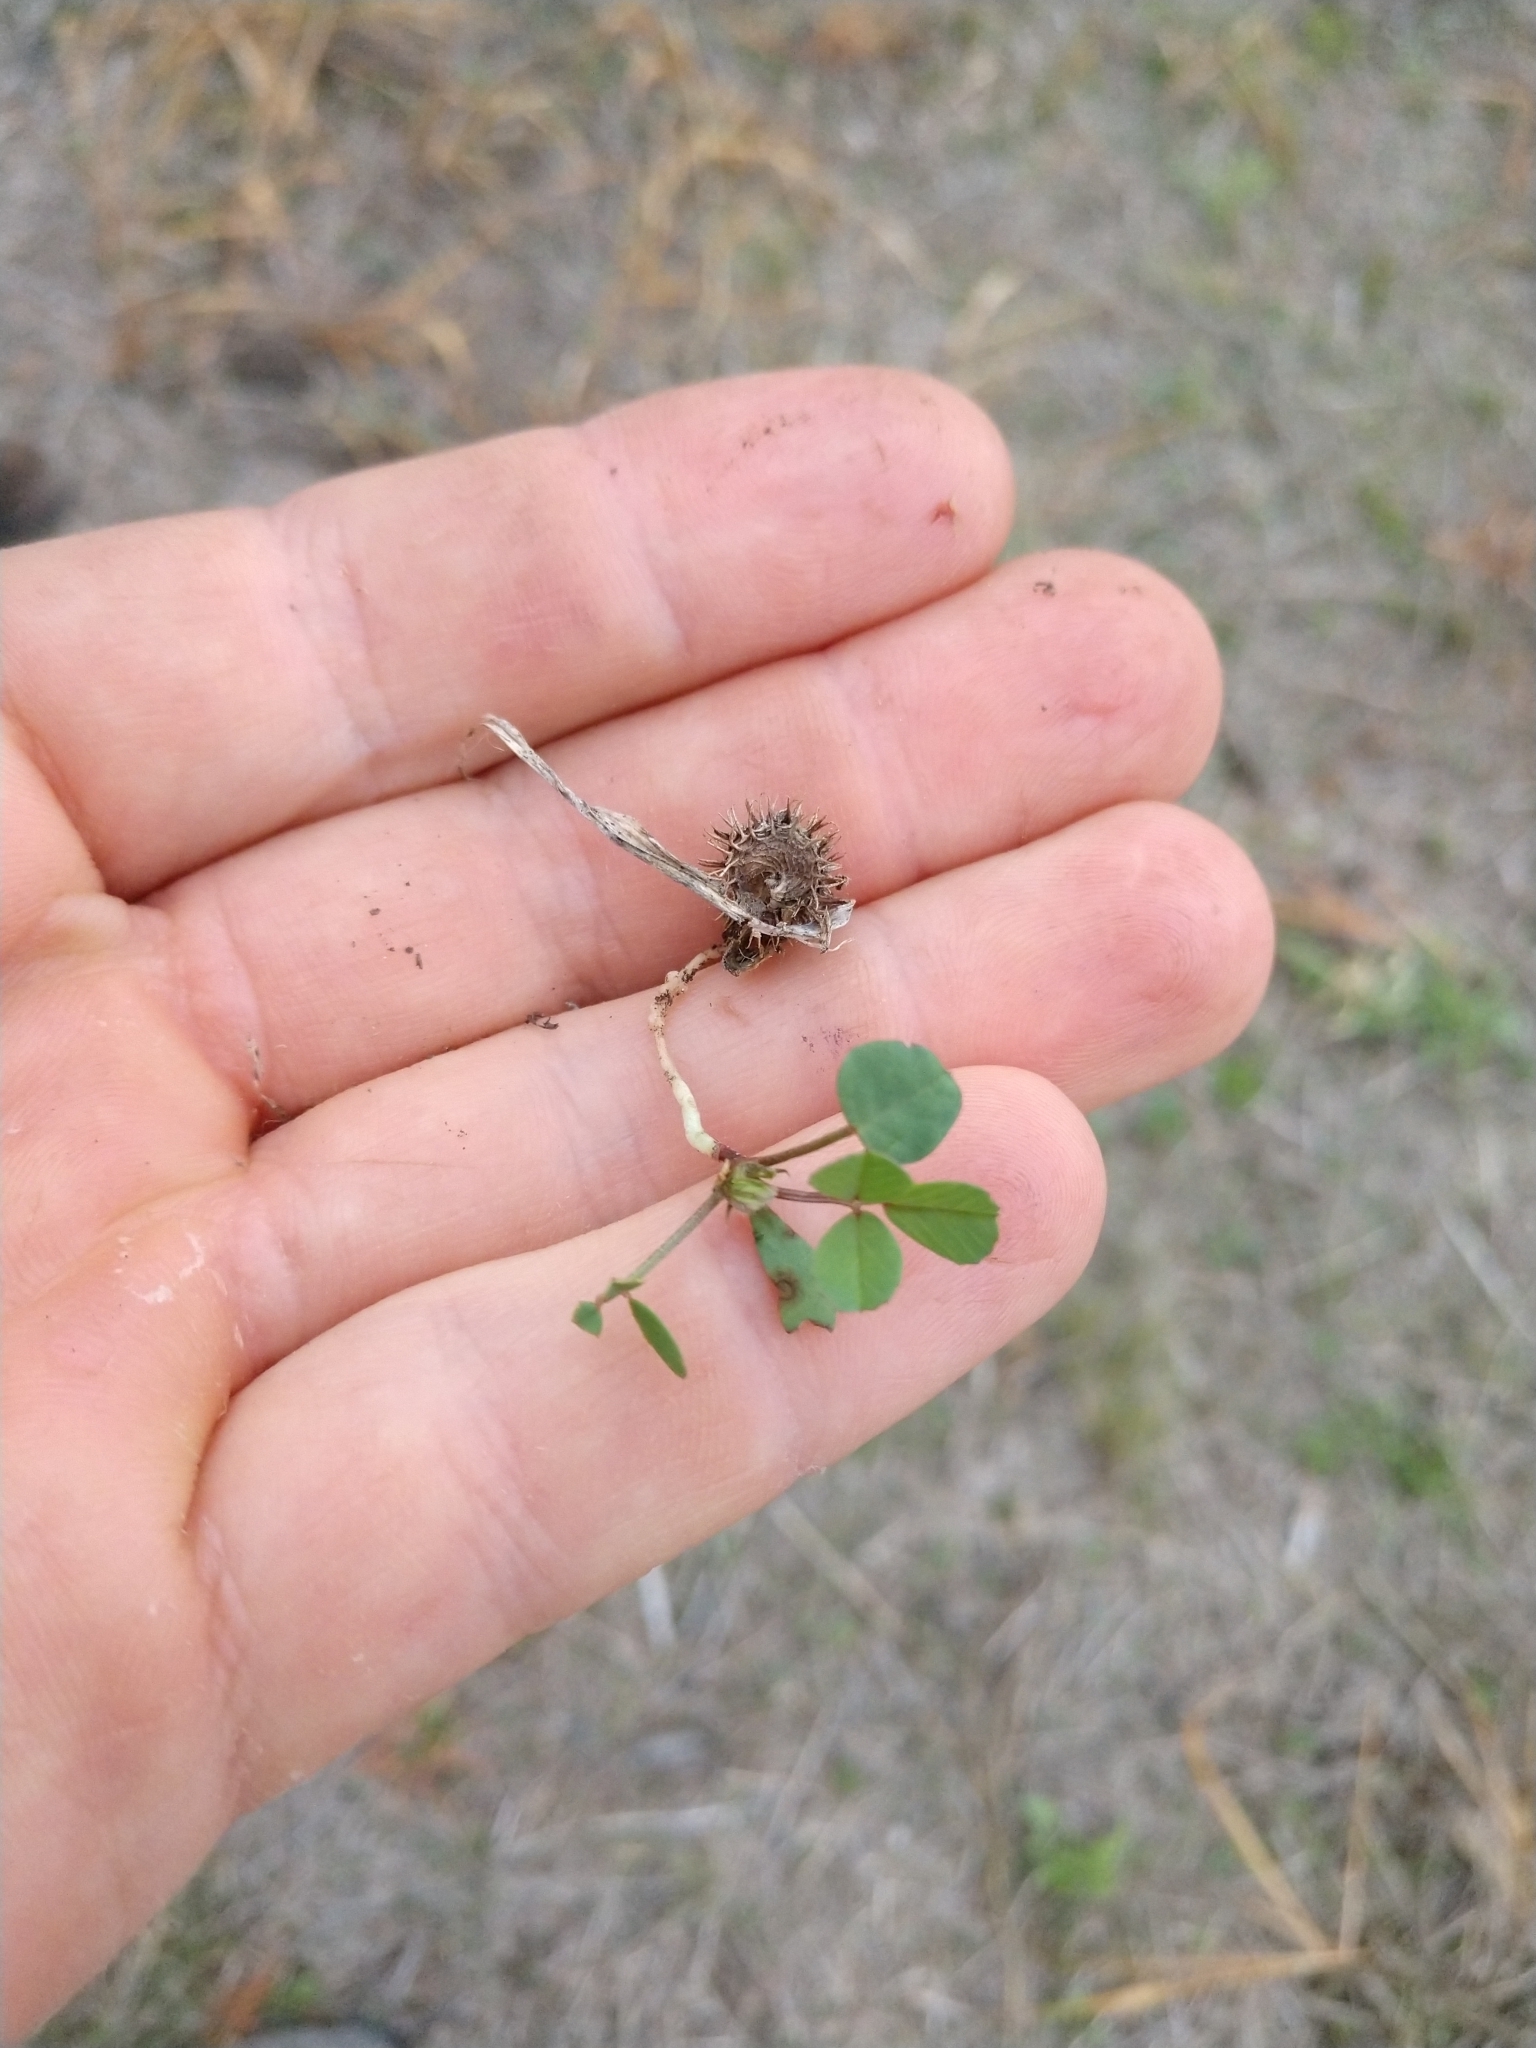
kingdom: Plantae
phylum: Tracheophyta
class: Magnoliopsida
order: Fabales
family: Fabaceae
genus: Medicago
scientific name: Medicago polymorpha
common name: Burclover
